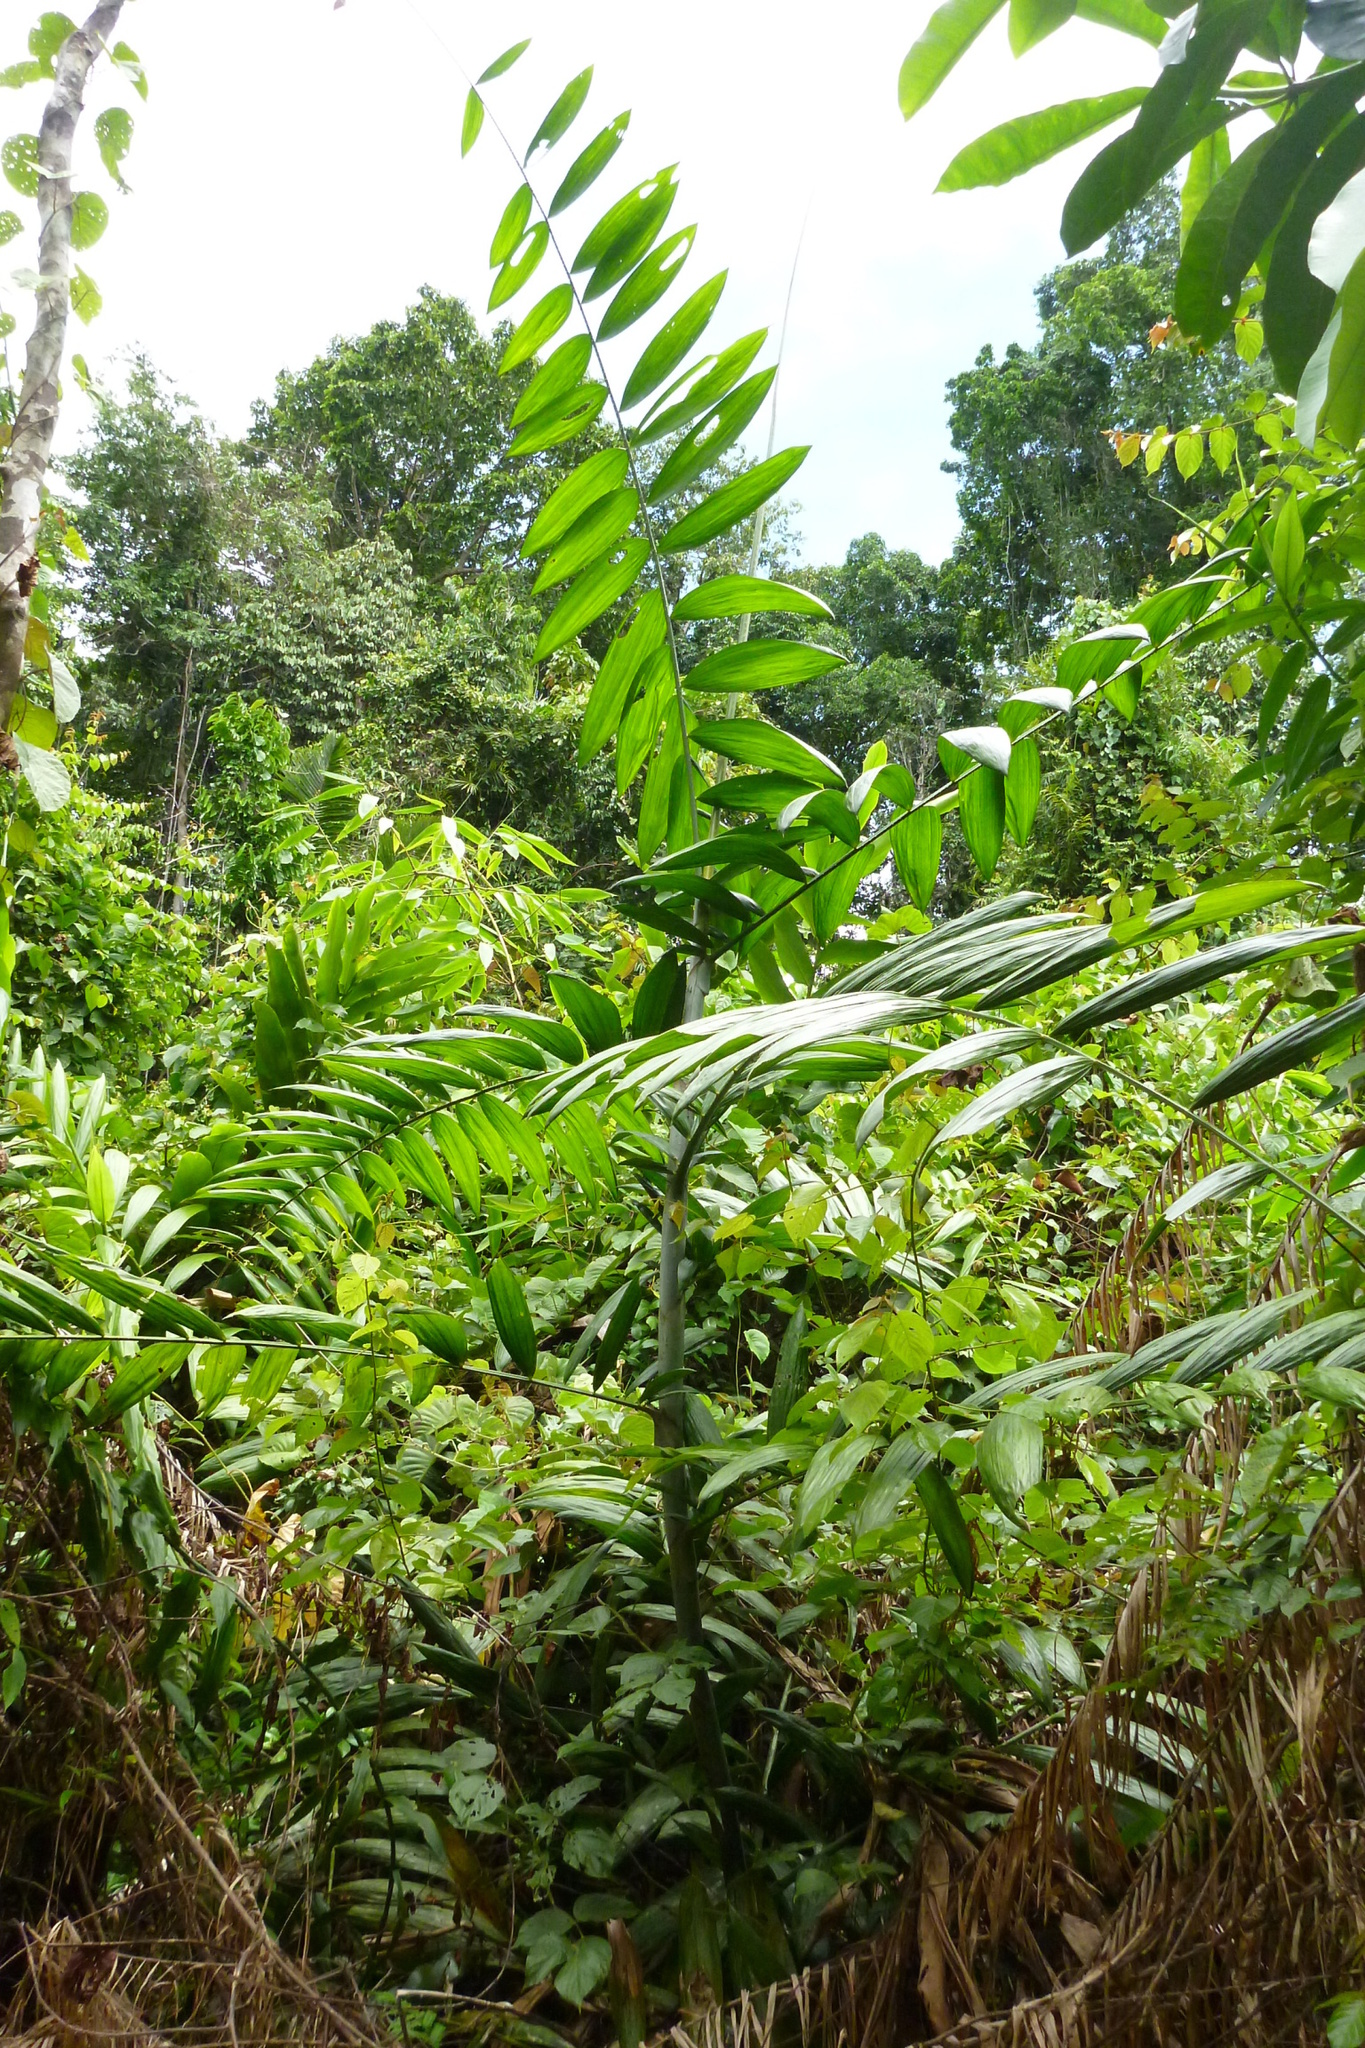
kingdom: Plantae
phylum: Tracheophyta
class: Liliopsida
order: Arecales
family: Arecaceae
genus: Calamus
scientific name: Calamus vitiensis
